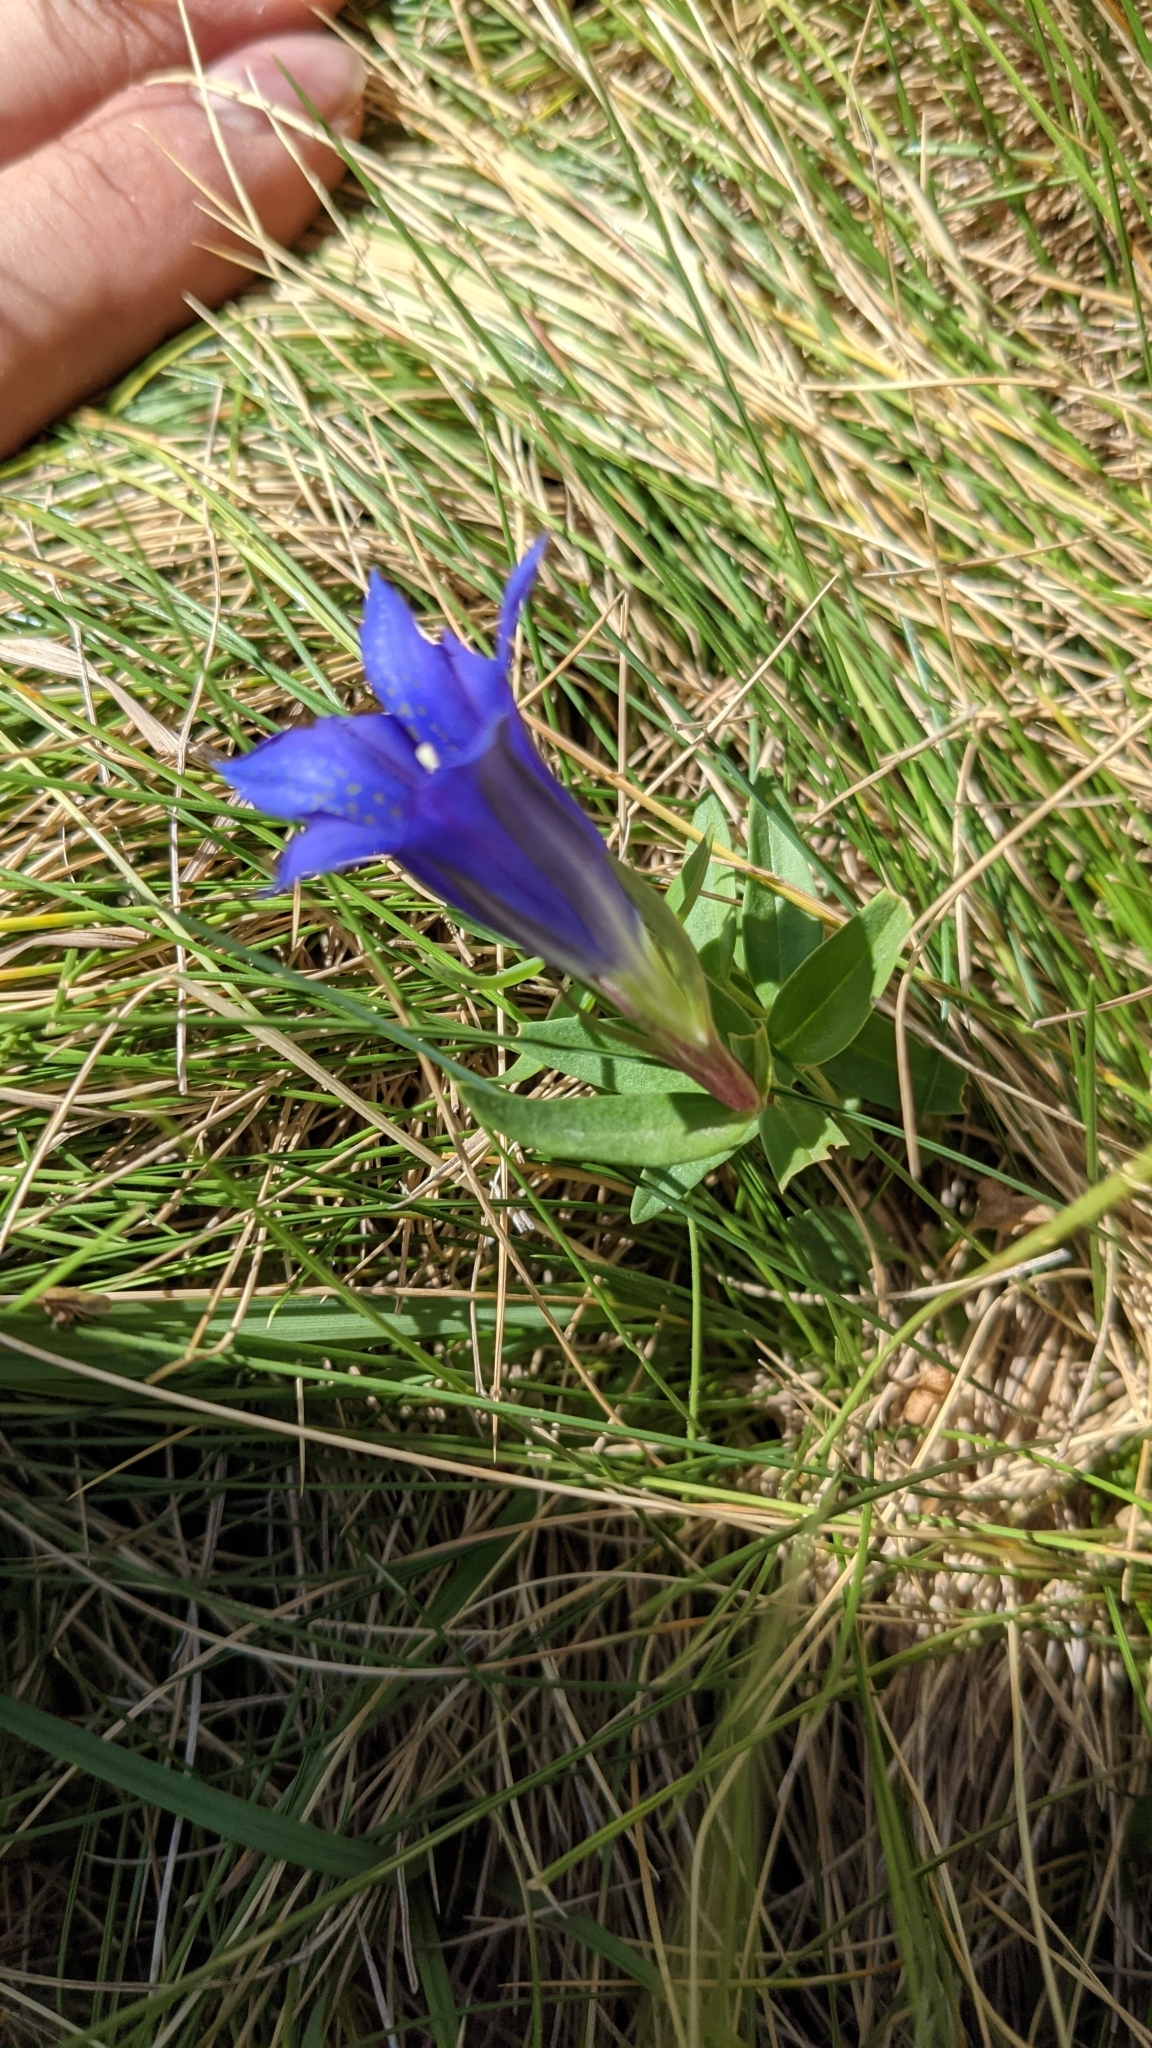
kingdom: Plantae
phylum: Tracheophyta
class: Magnoliopsida
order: Gentianales
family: Gentianaceae
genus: Gentiana
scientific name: Gentiana pneumonanthe
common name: Marsh gentian
